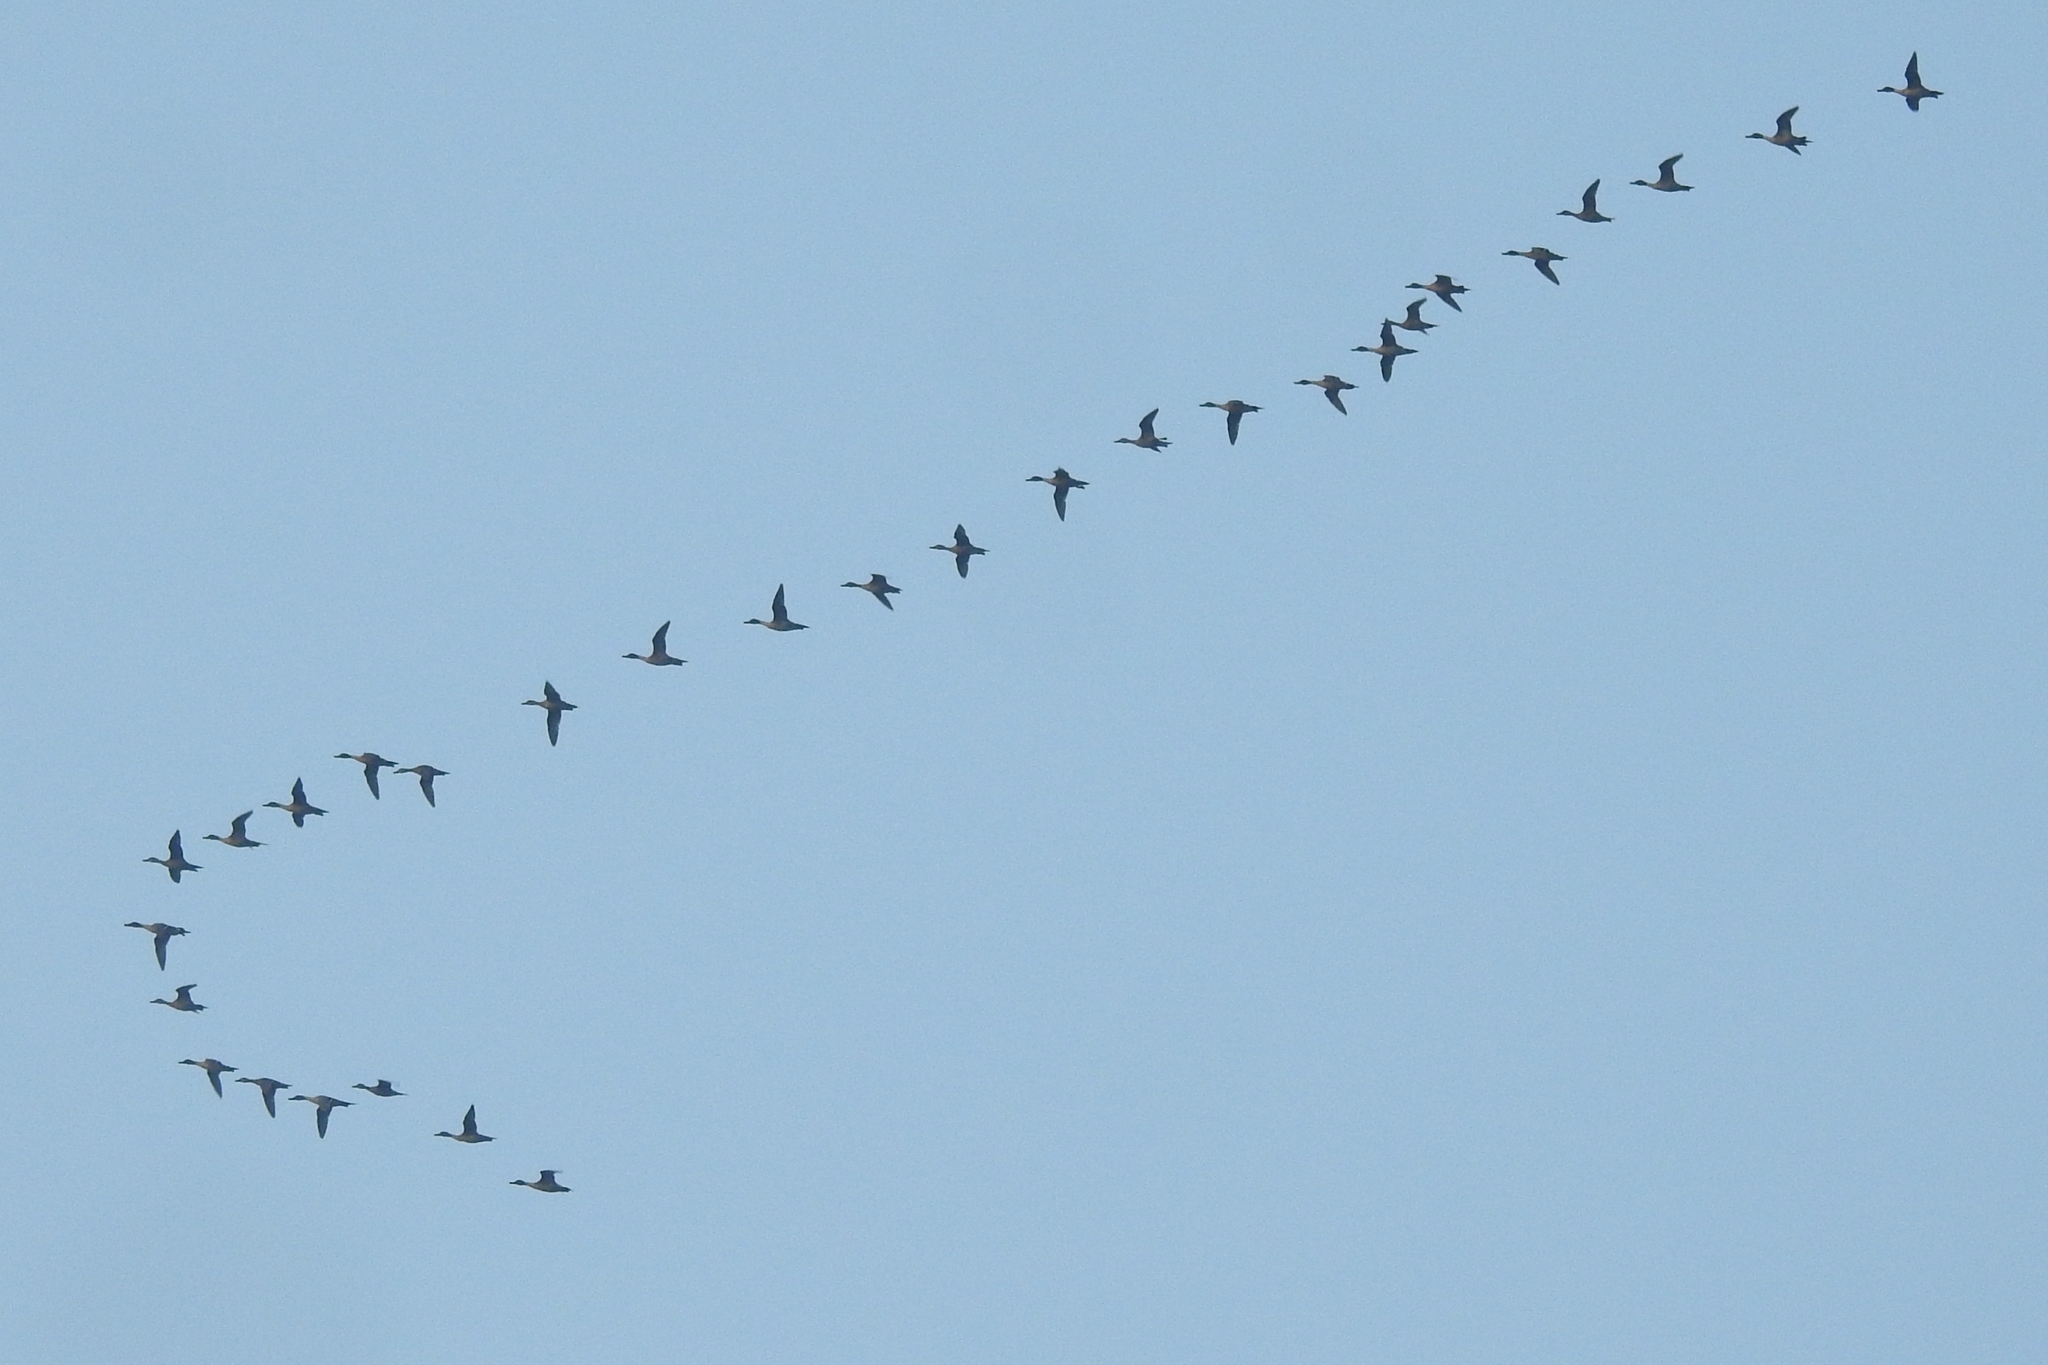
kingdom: Animalia
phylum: Chordata
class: Aves
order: Suliformes
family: Phalacrocoracidae
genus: Phalacrocorax
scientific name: Phalacrocorax carbo
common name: Great cormorant
